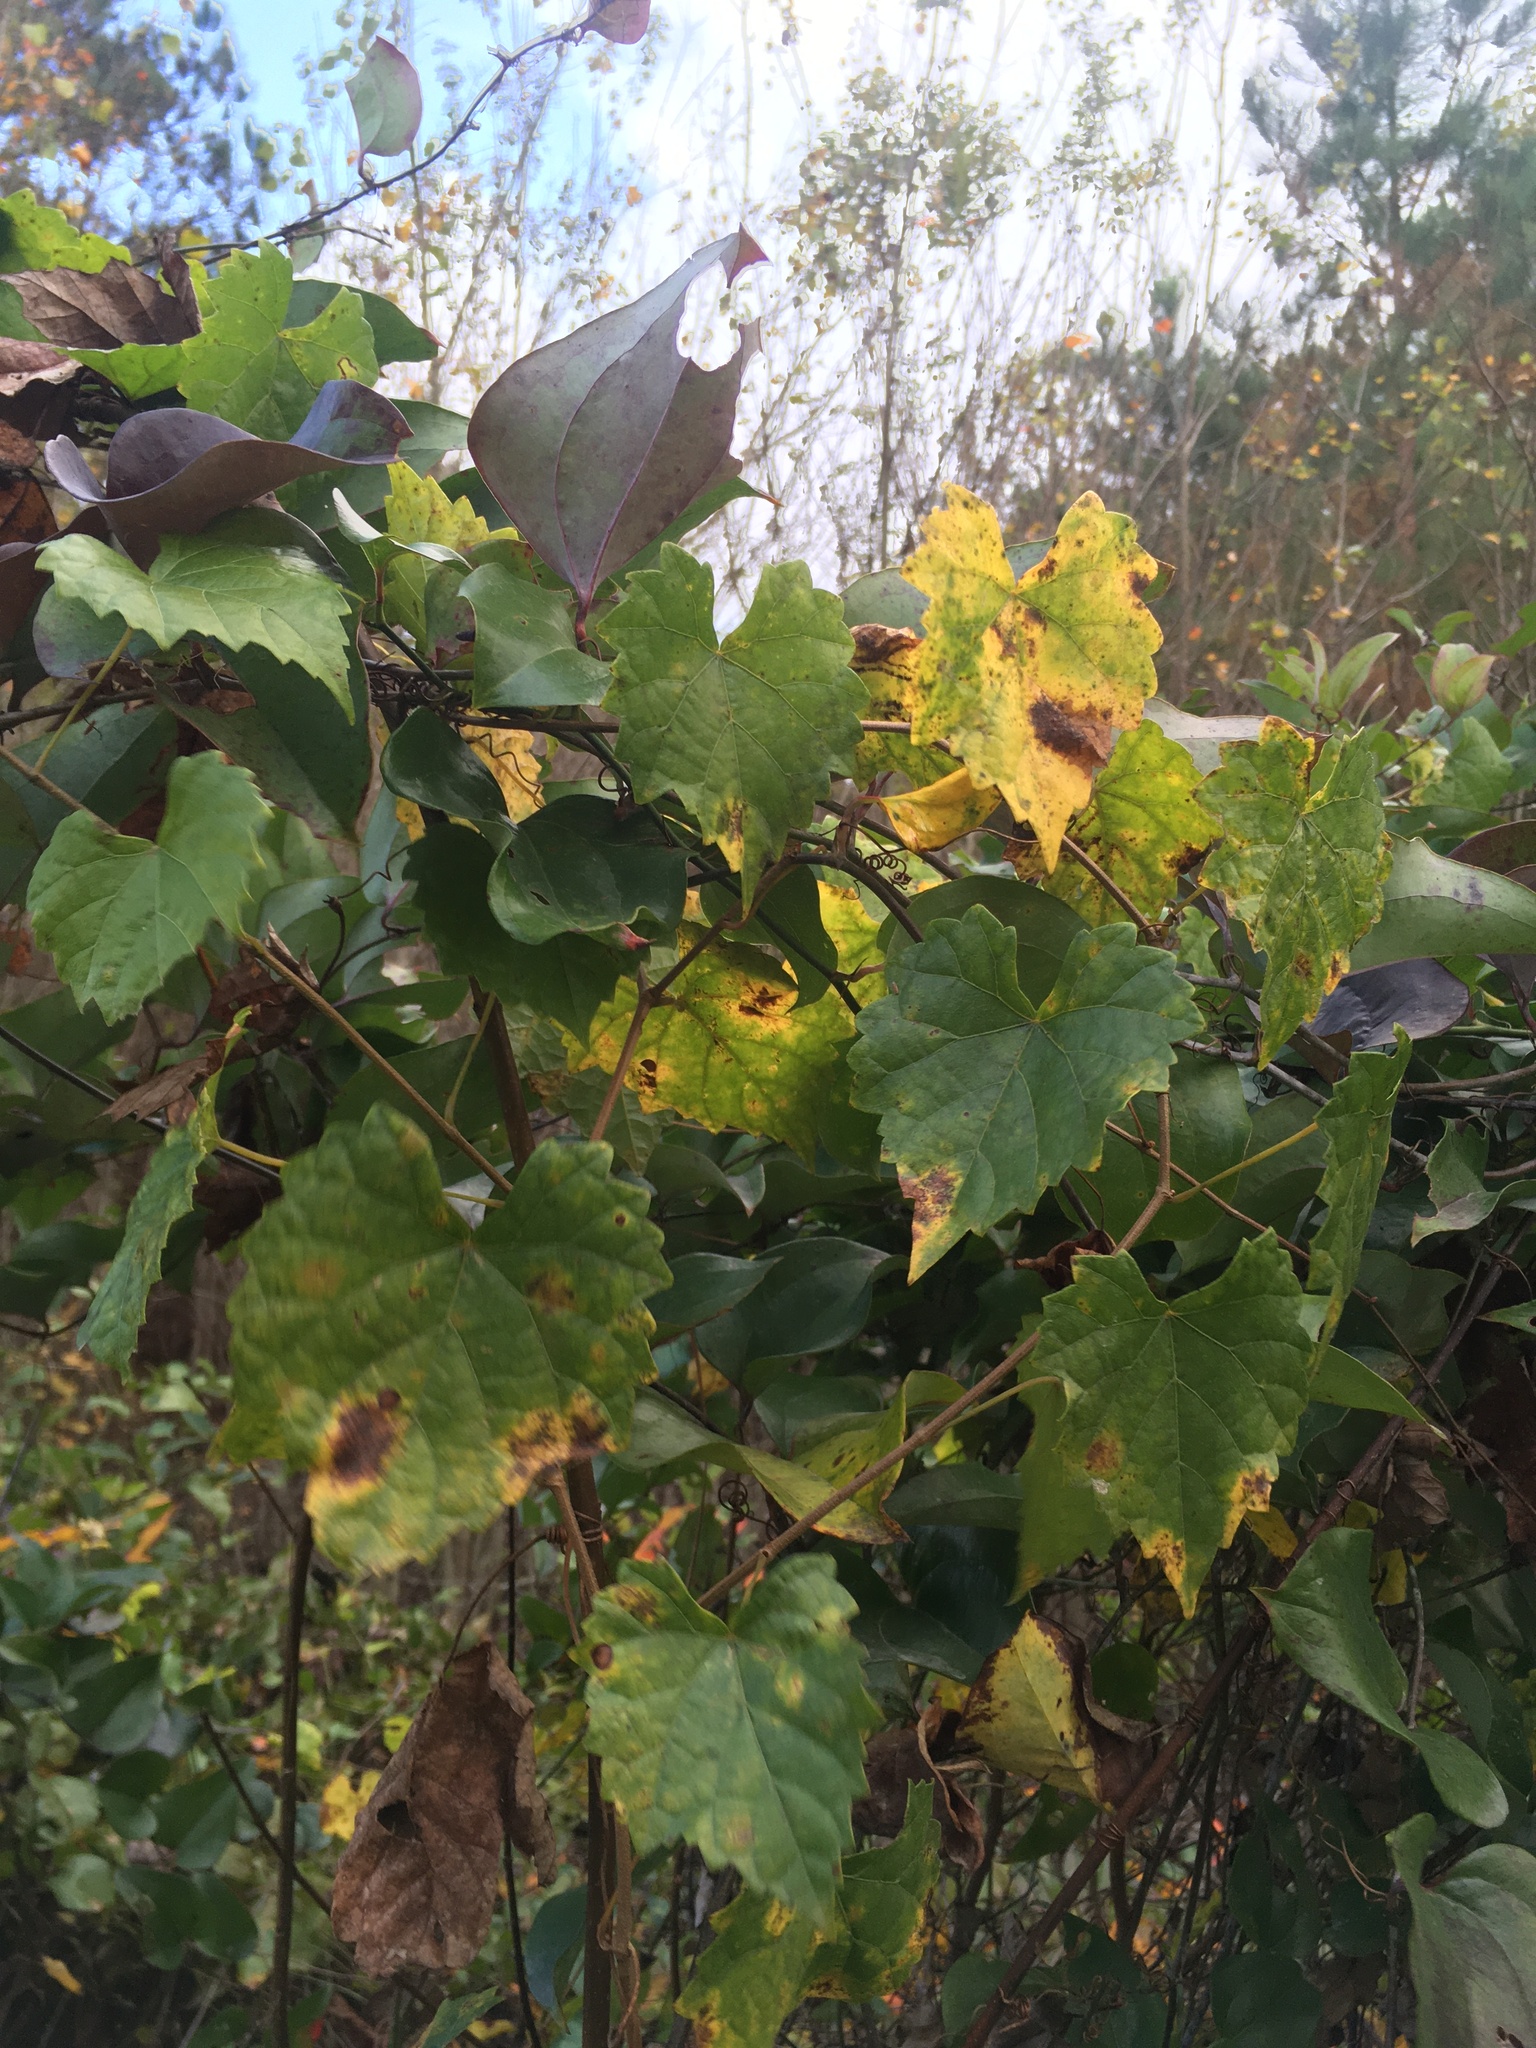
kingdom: Plantae
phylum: Tracheophyta
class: Magnoliopsida
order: Vitales
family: Vitaceae
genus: Vitis
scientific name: Vitis rotundifolia
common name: Muscadine grape
